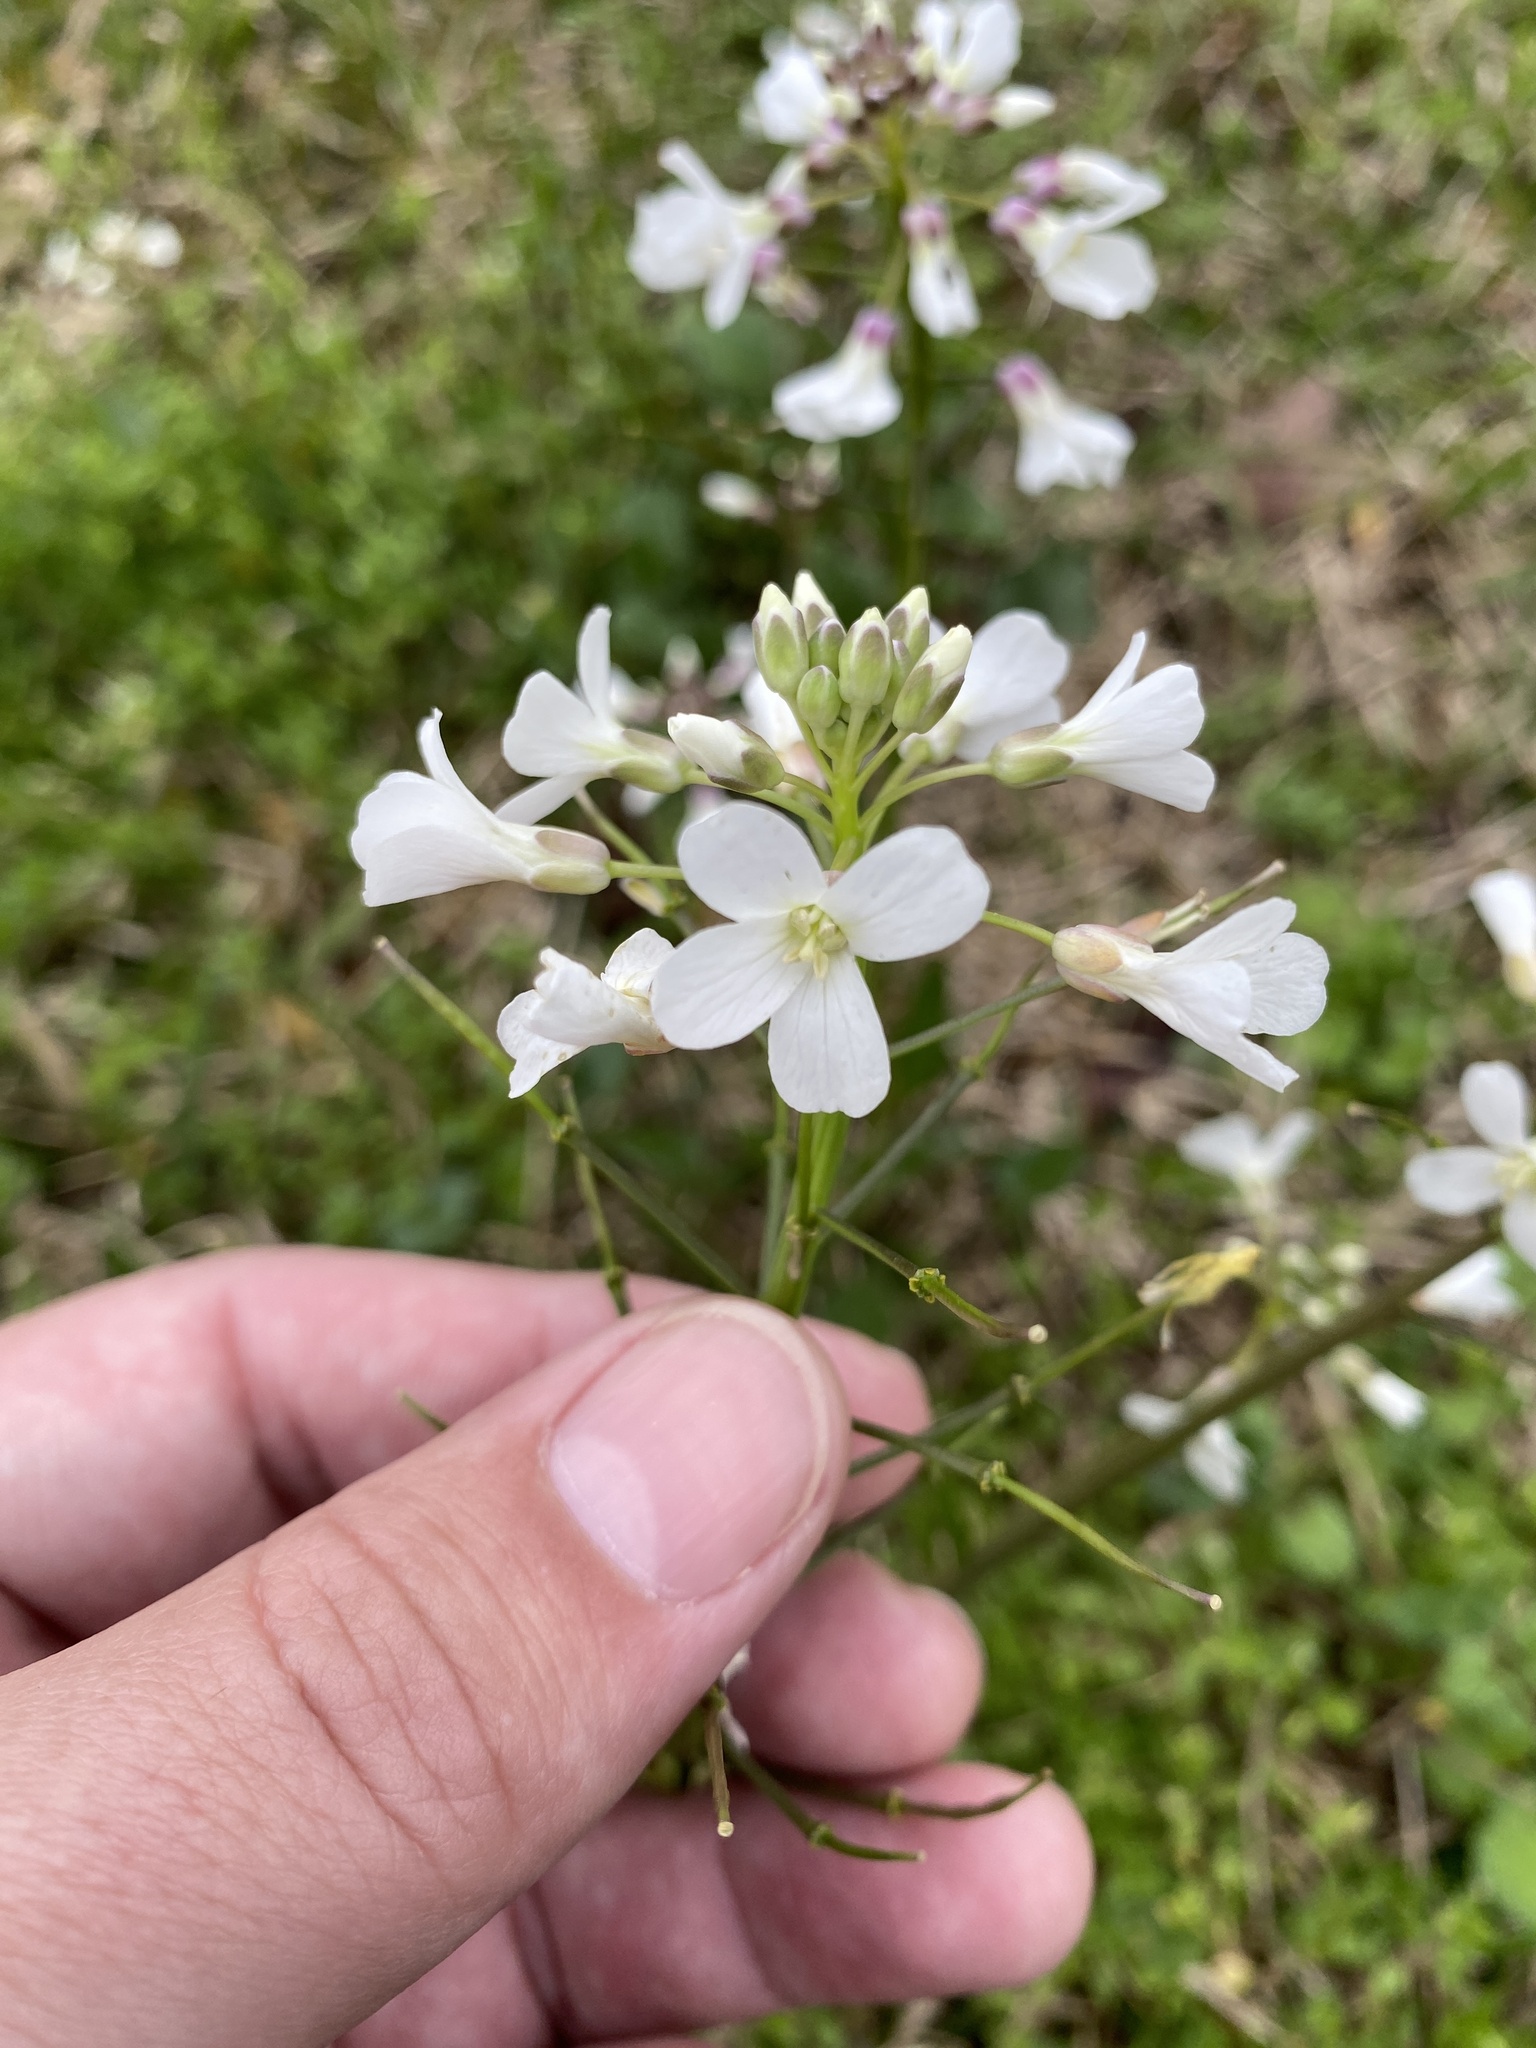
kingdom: Plantae
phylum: Tracheophyta
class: Magnoliopsida
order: Brassicales
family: Brassicaceae
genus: Cardamine
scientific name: Cardamine bulbosa
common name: Spring cress
